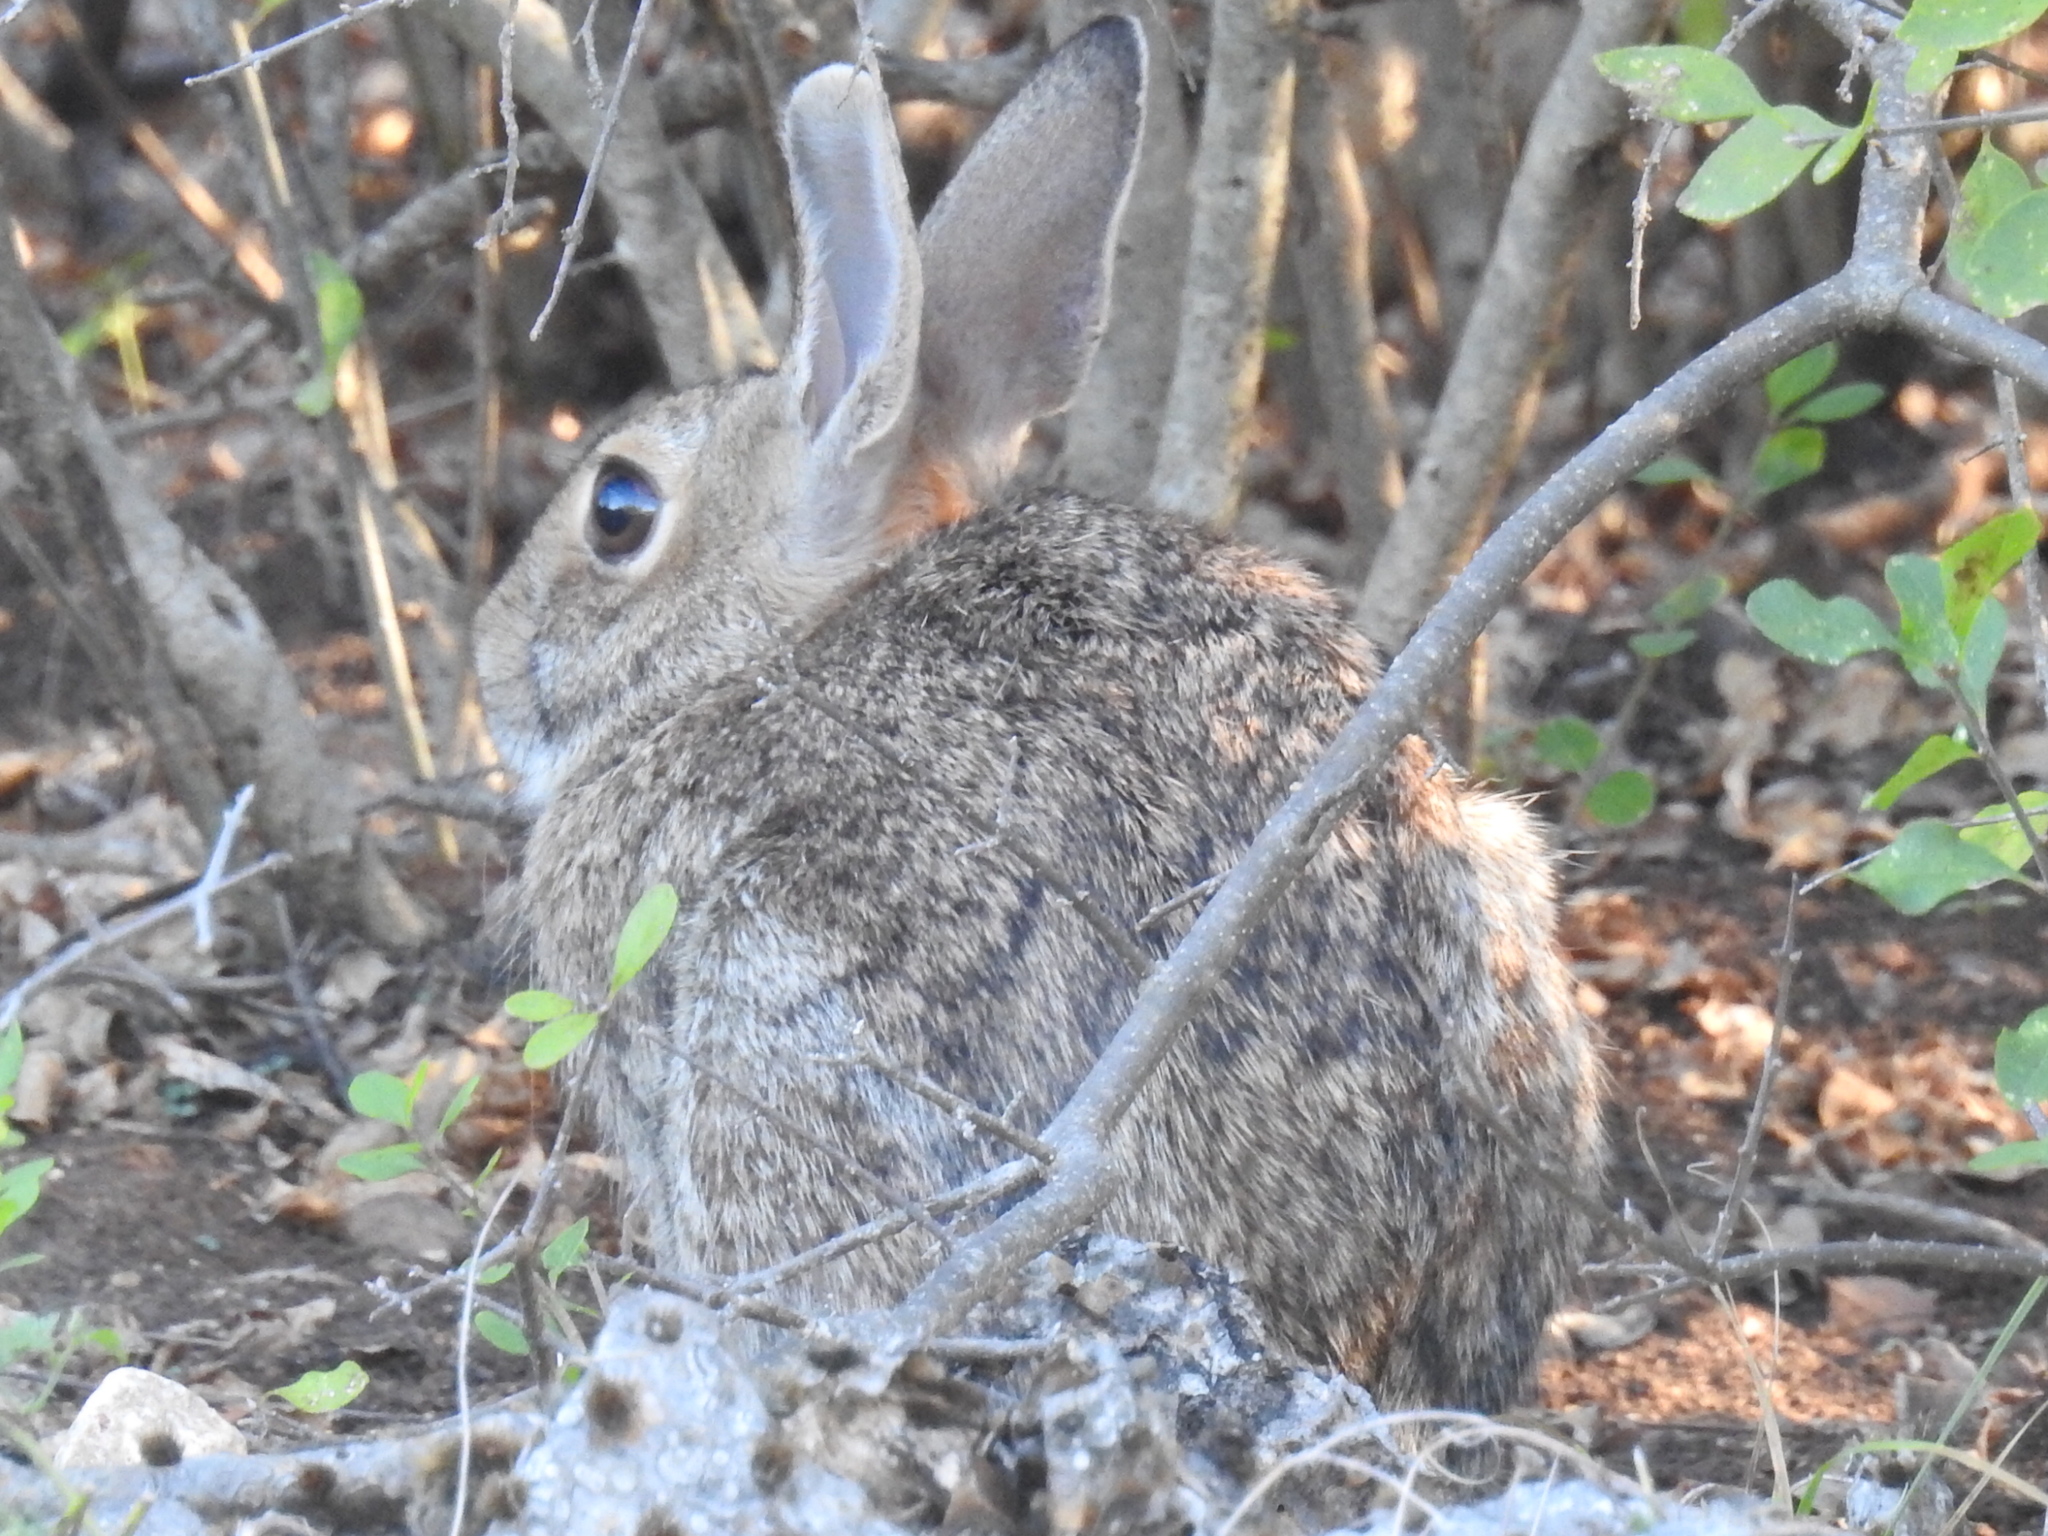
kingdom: Animalia
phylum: Chordata
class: Mammalia
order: Lagomorpha
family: Leporidae
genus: Sylvilagus
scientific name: Sylvilagus floridanus
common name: Eastern cottontail
